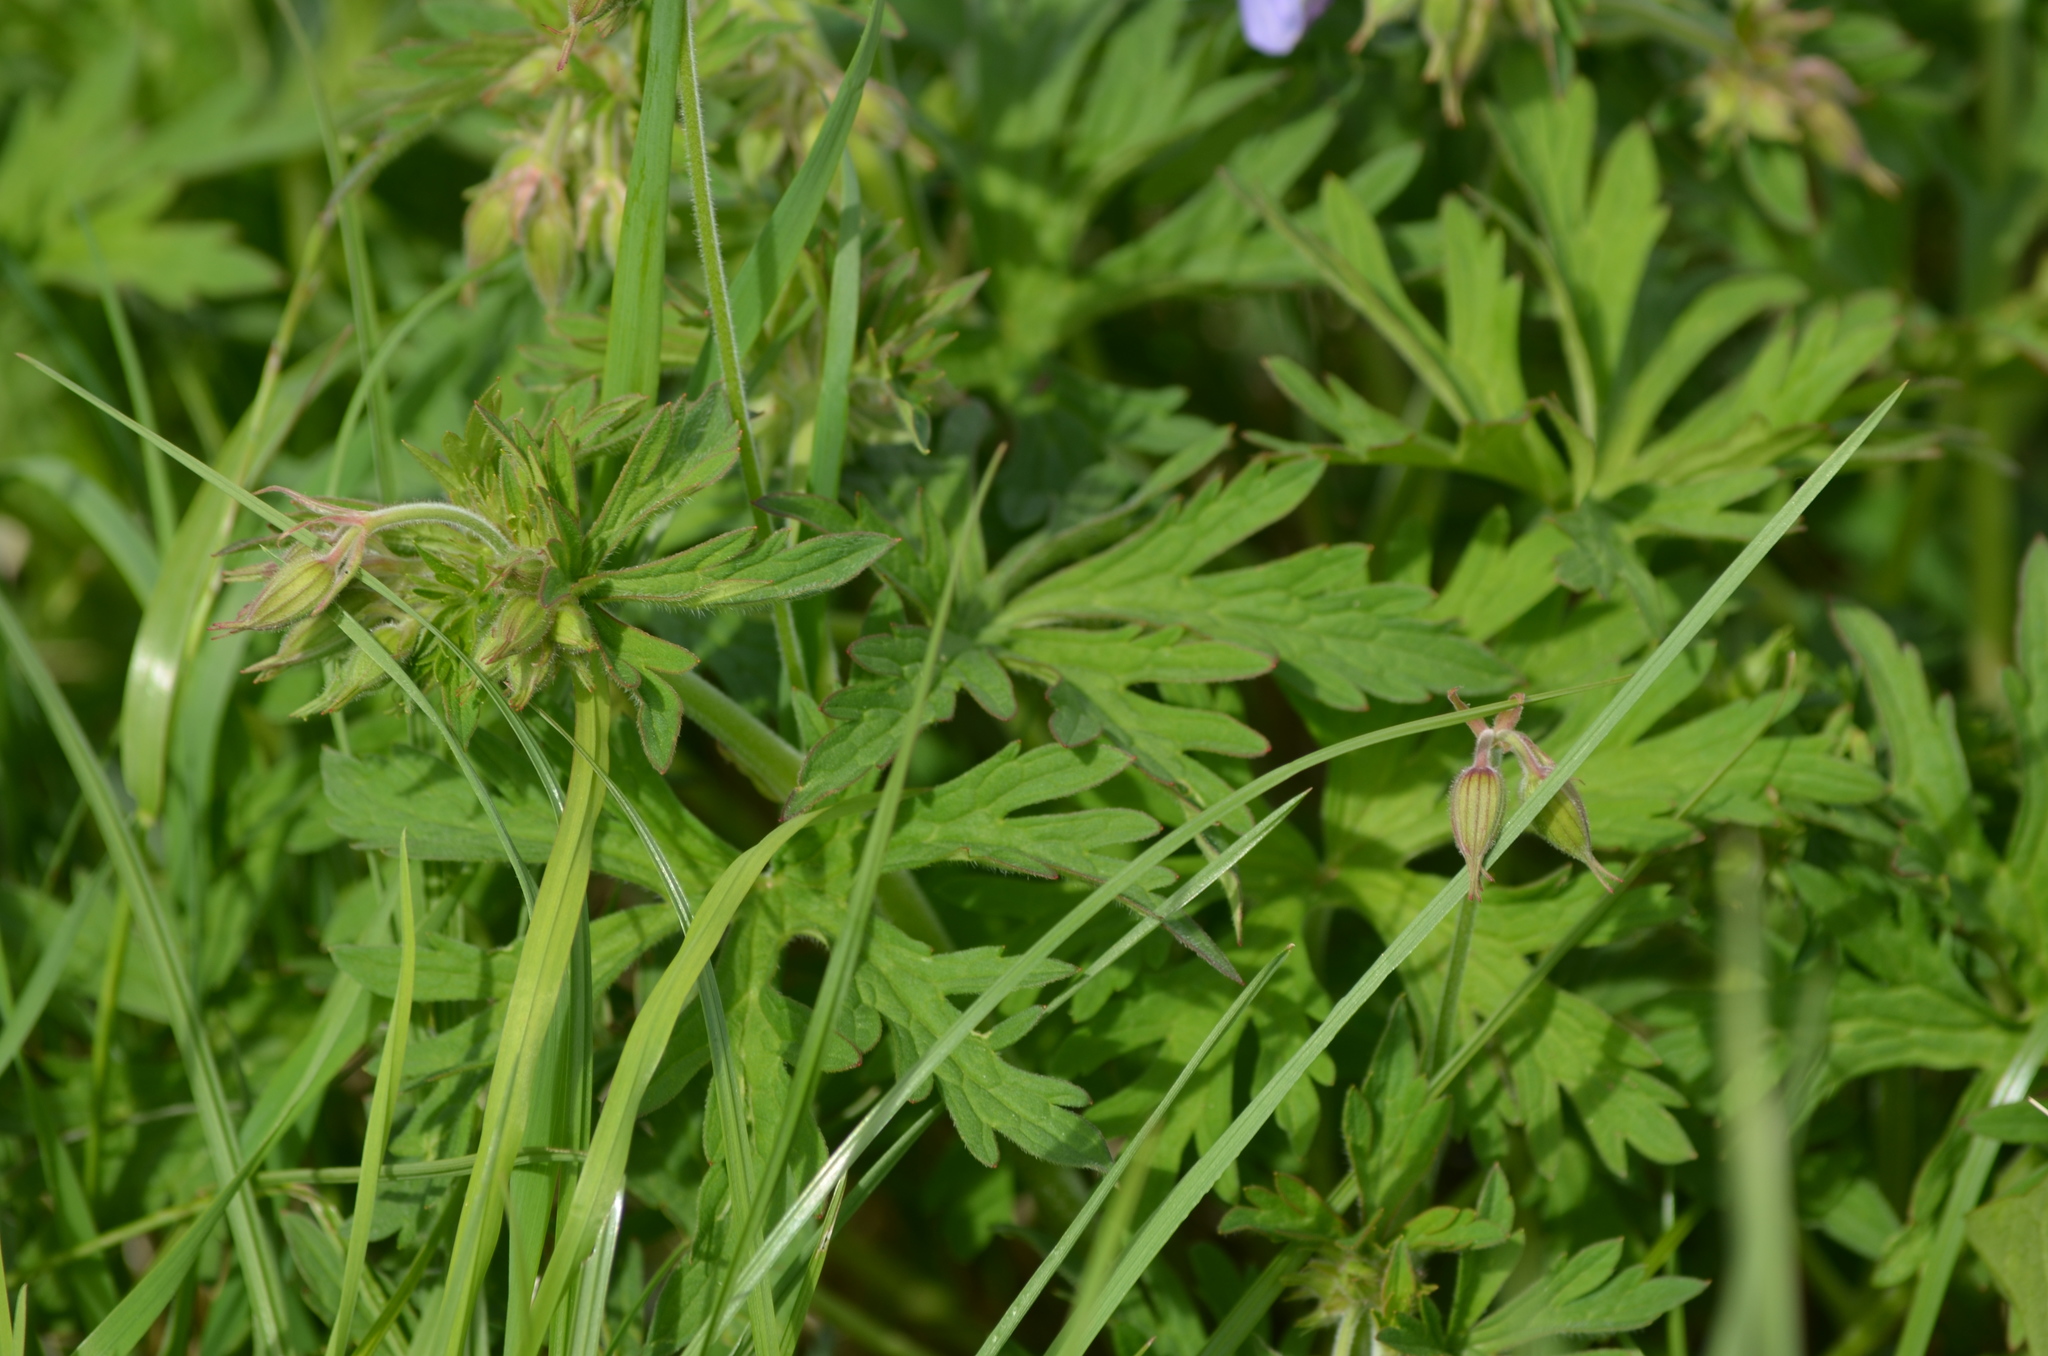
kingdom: Plantae
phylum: Tracheophyta
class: Magnoliopsida
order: Geraniales
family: Geraniaceae
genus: Geranium
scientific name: Geranium pratense
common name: Meadow crane's-bill
